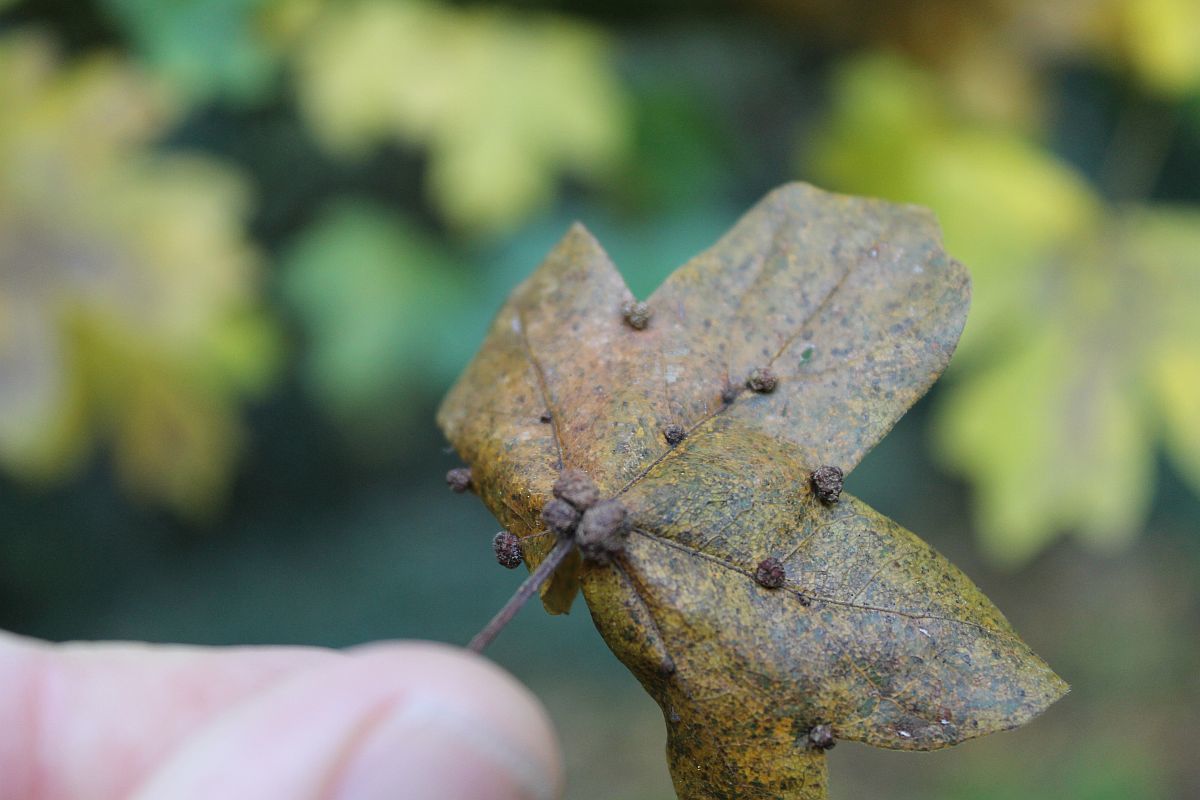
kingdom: Animalia
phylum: Arthropoda
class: Arachnida
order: Trombidiformes
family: Eriophyidae
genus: Aceria
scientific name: Aceria macrochelus
